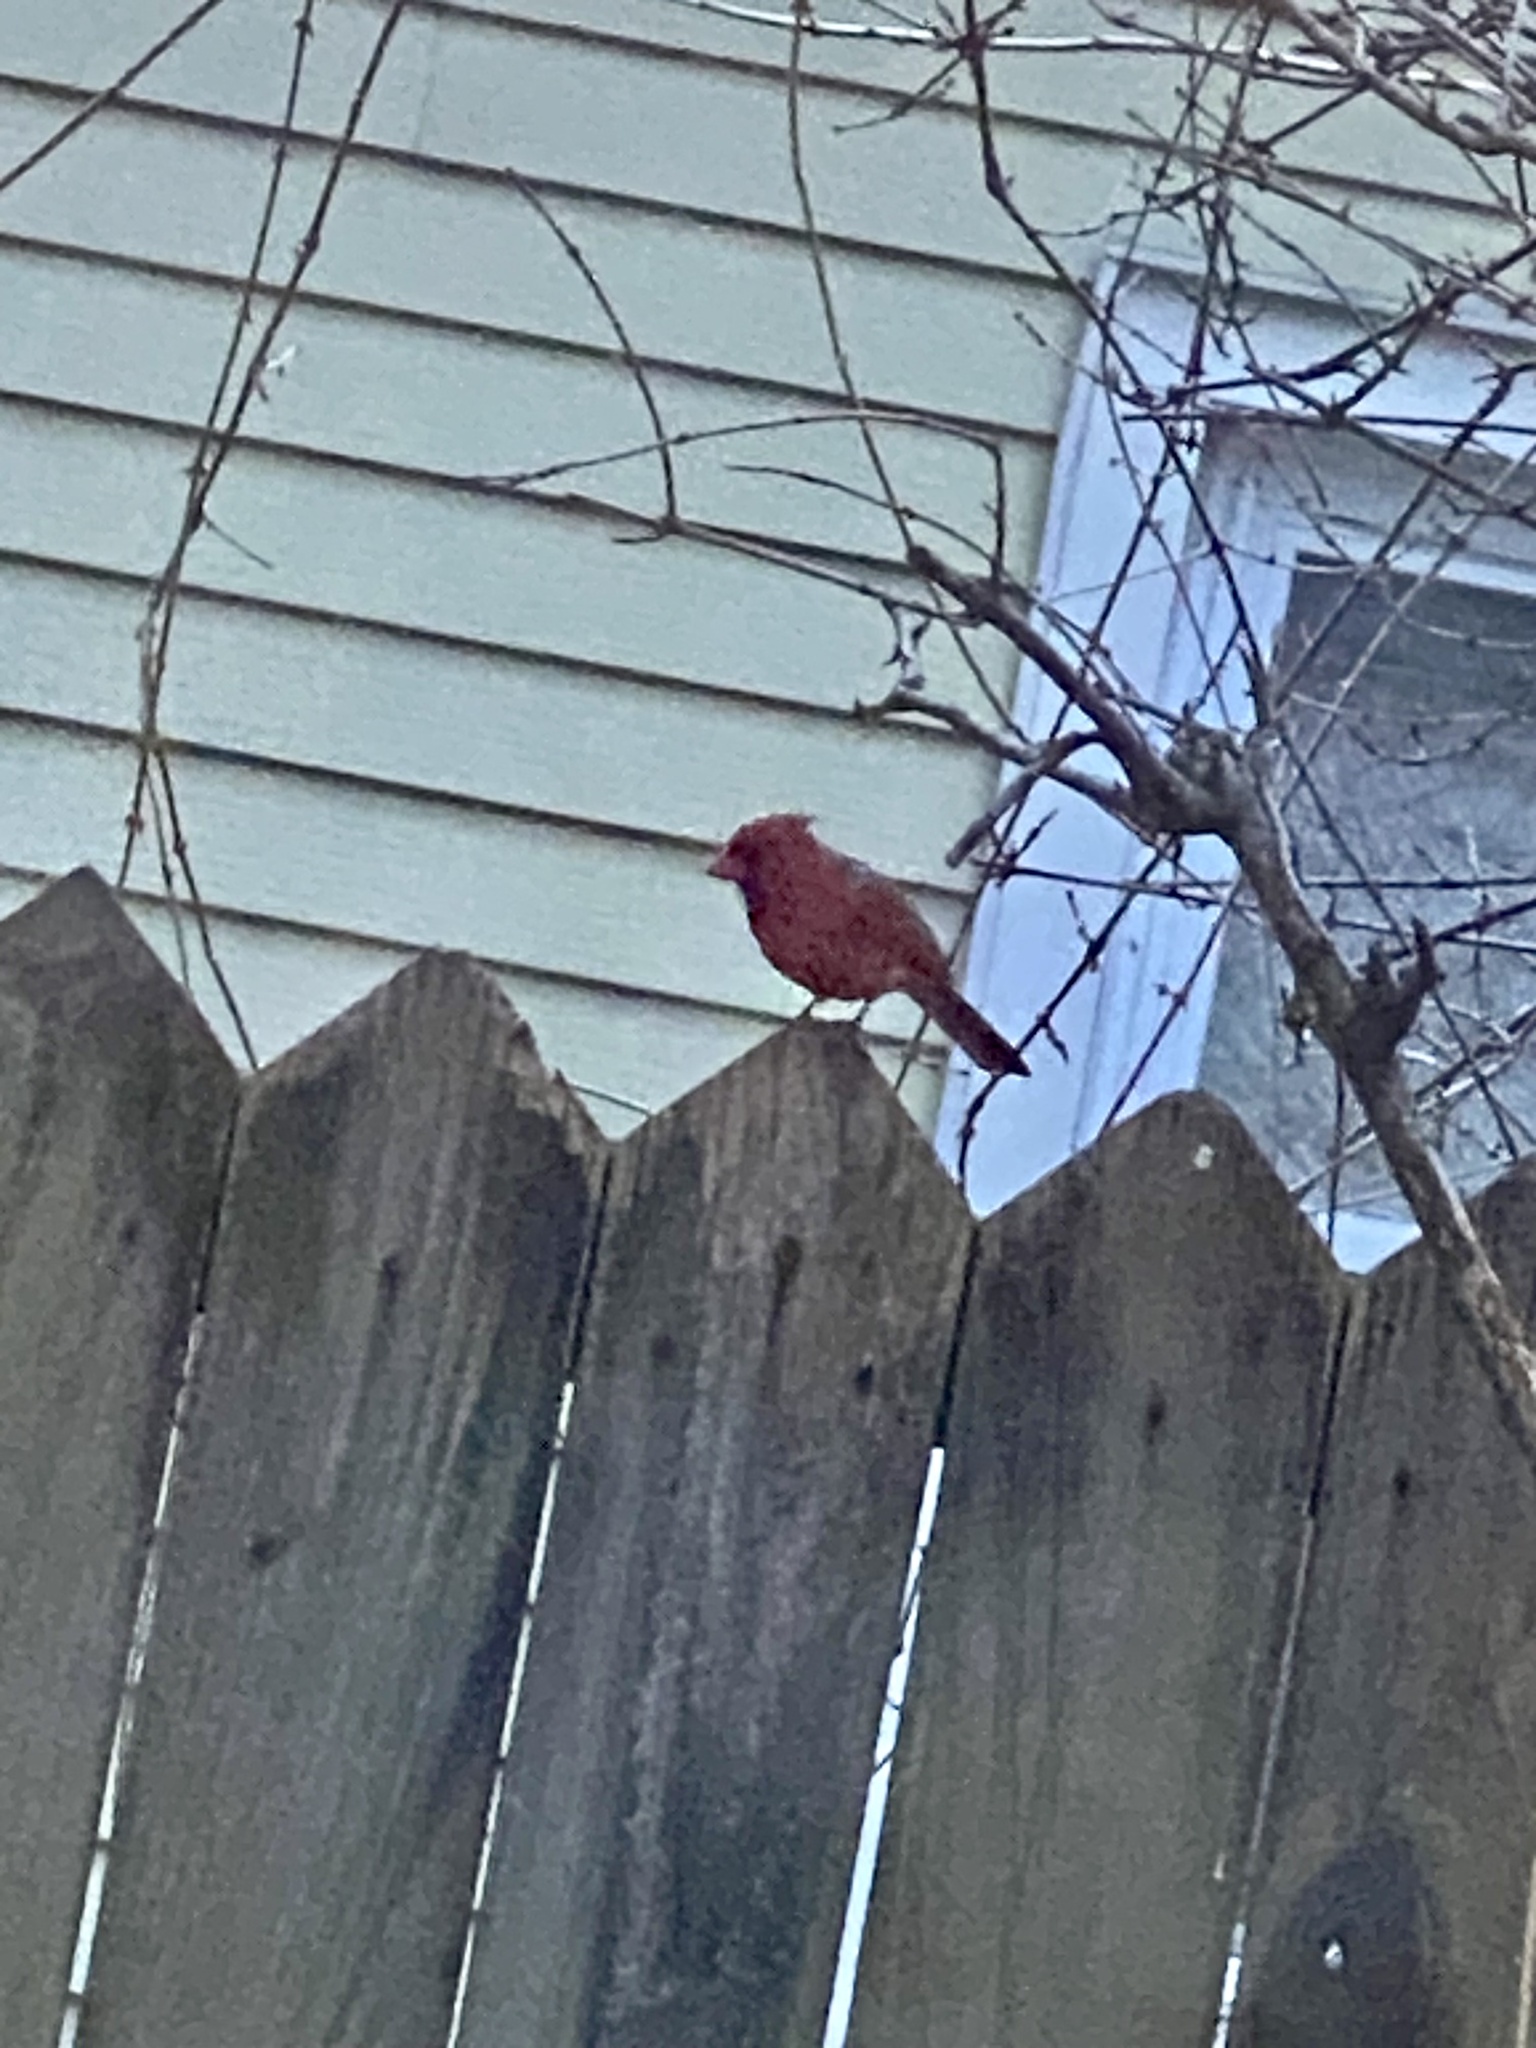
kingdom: Animalia
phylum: Chordata
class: Aves
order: Passeriformes
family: Cardinalidae
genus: Cardinalis
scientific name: Cardinalis cardinalis
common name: Northern cardinal
